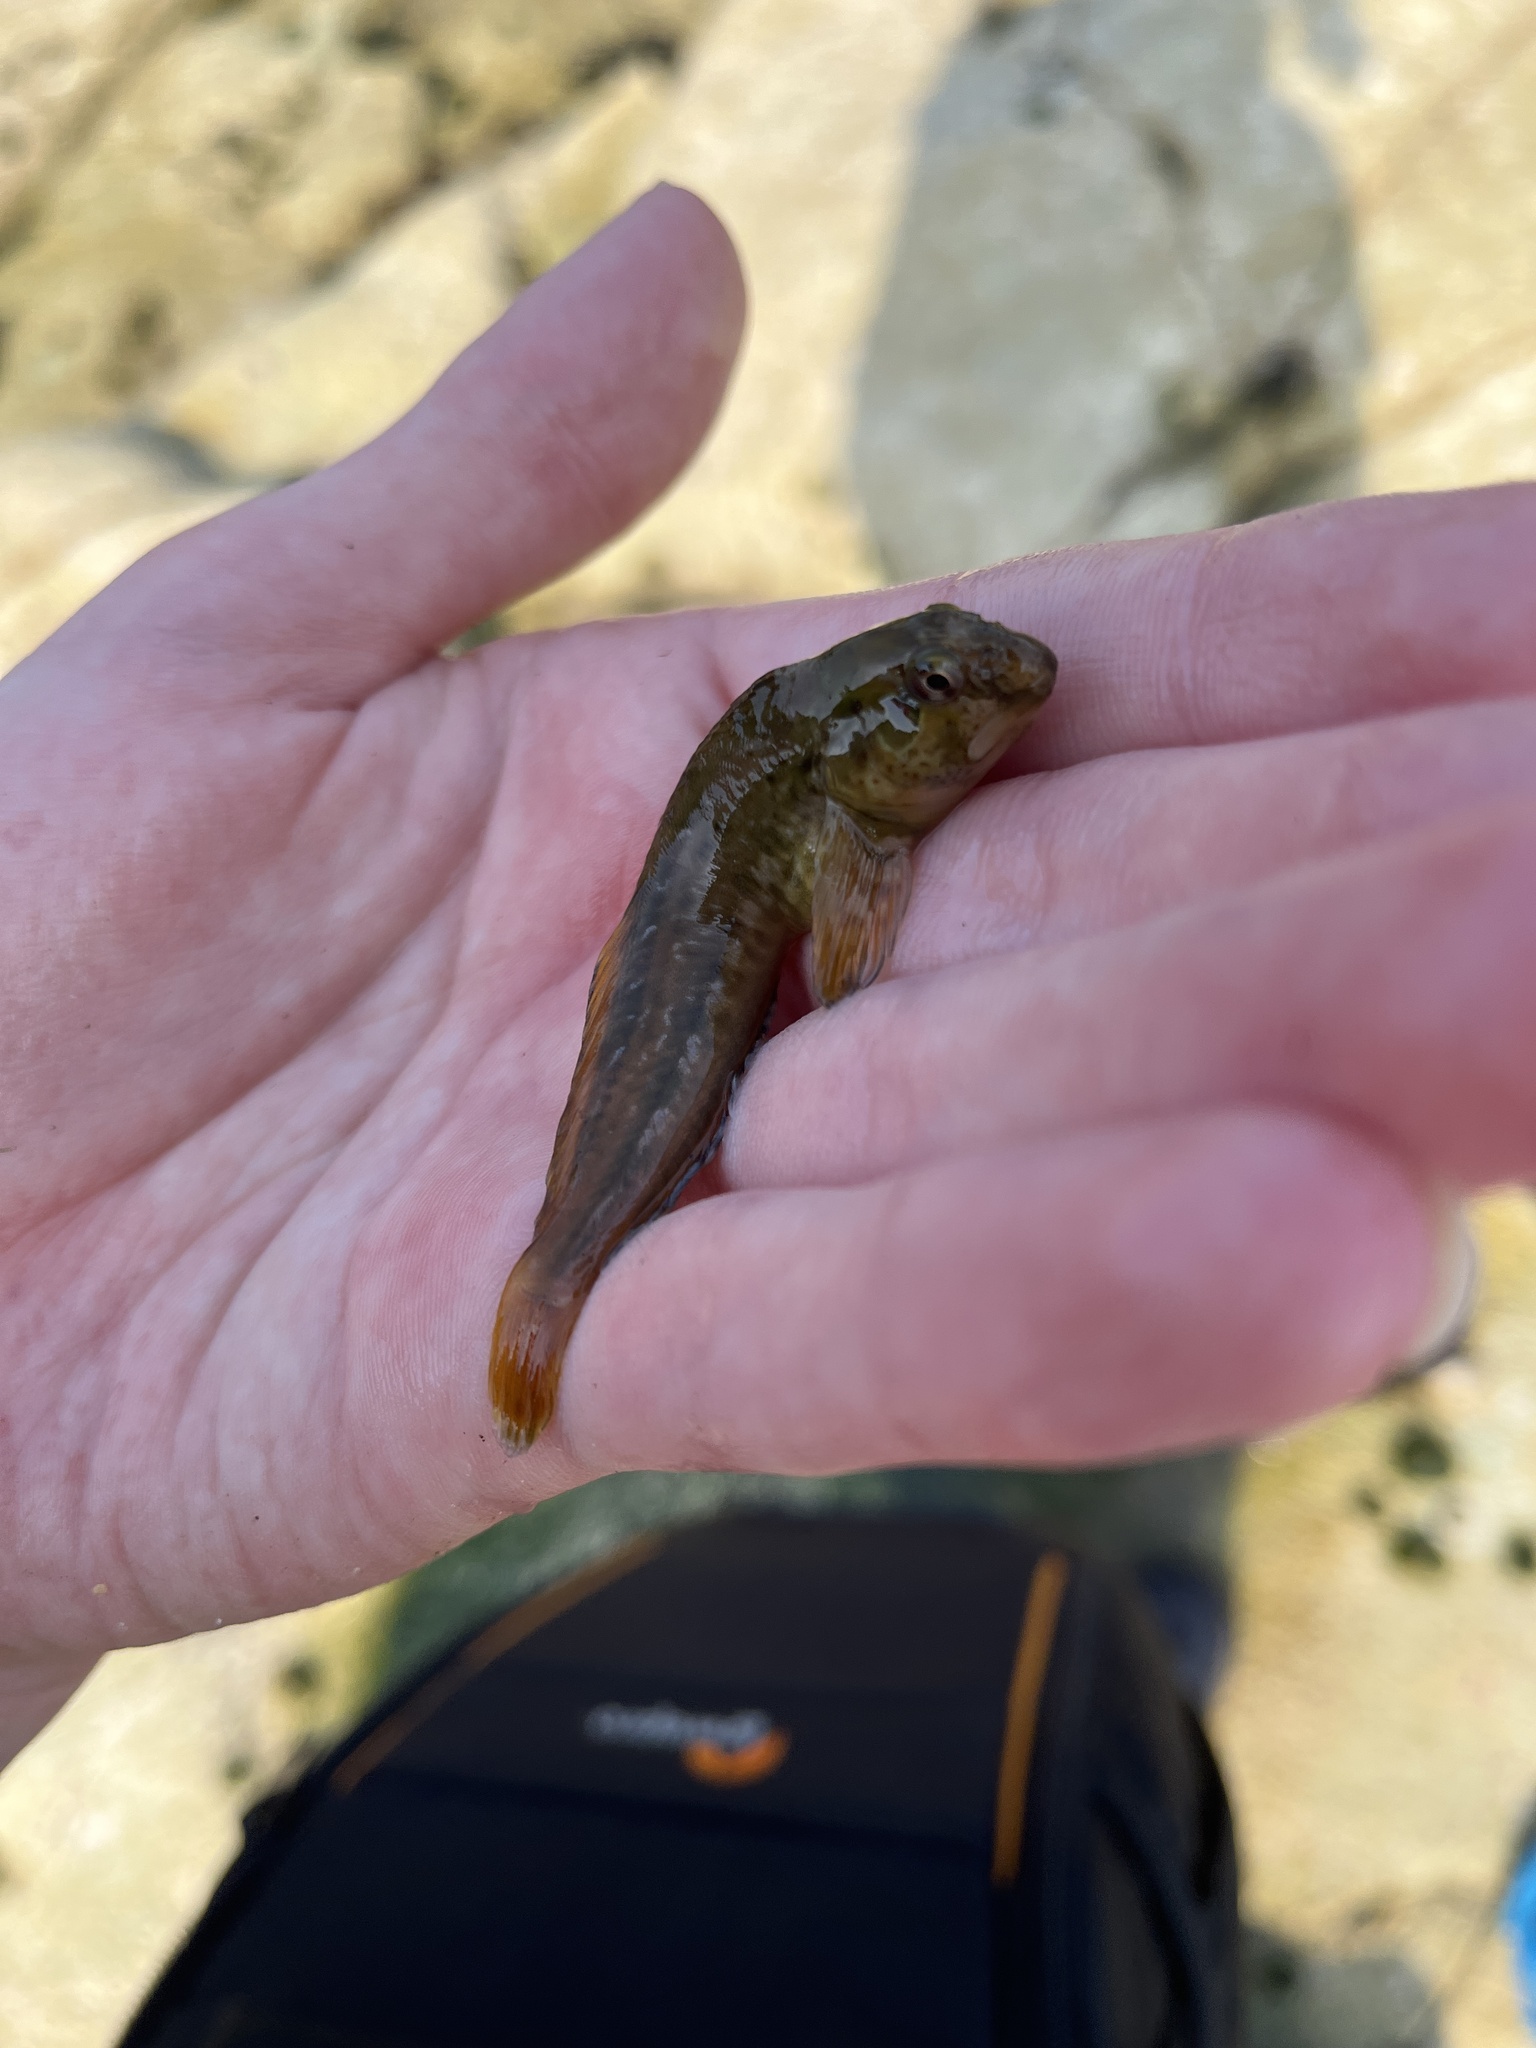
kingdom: Animalia
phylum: Chordata
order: Perciformes
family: Blenniidae
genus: Lipophrys
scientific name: Lipophrys pholis
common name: Shanny
